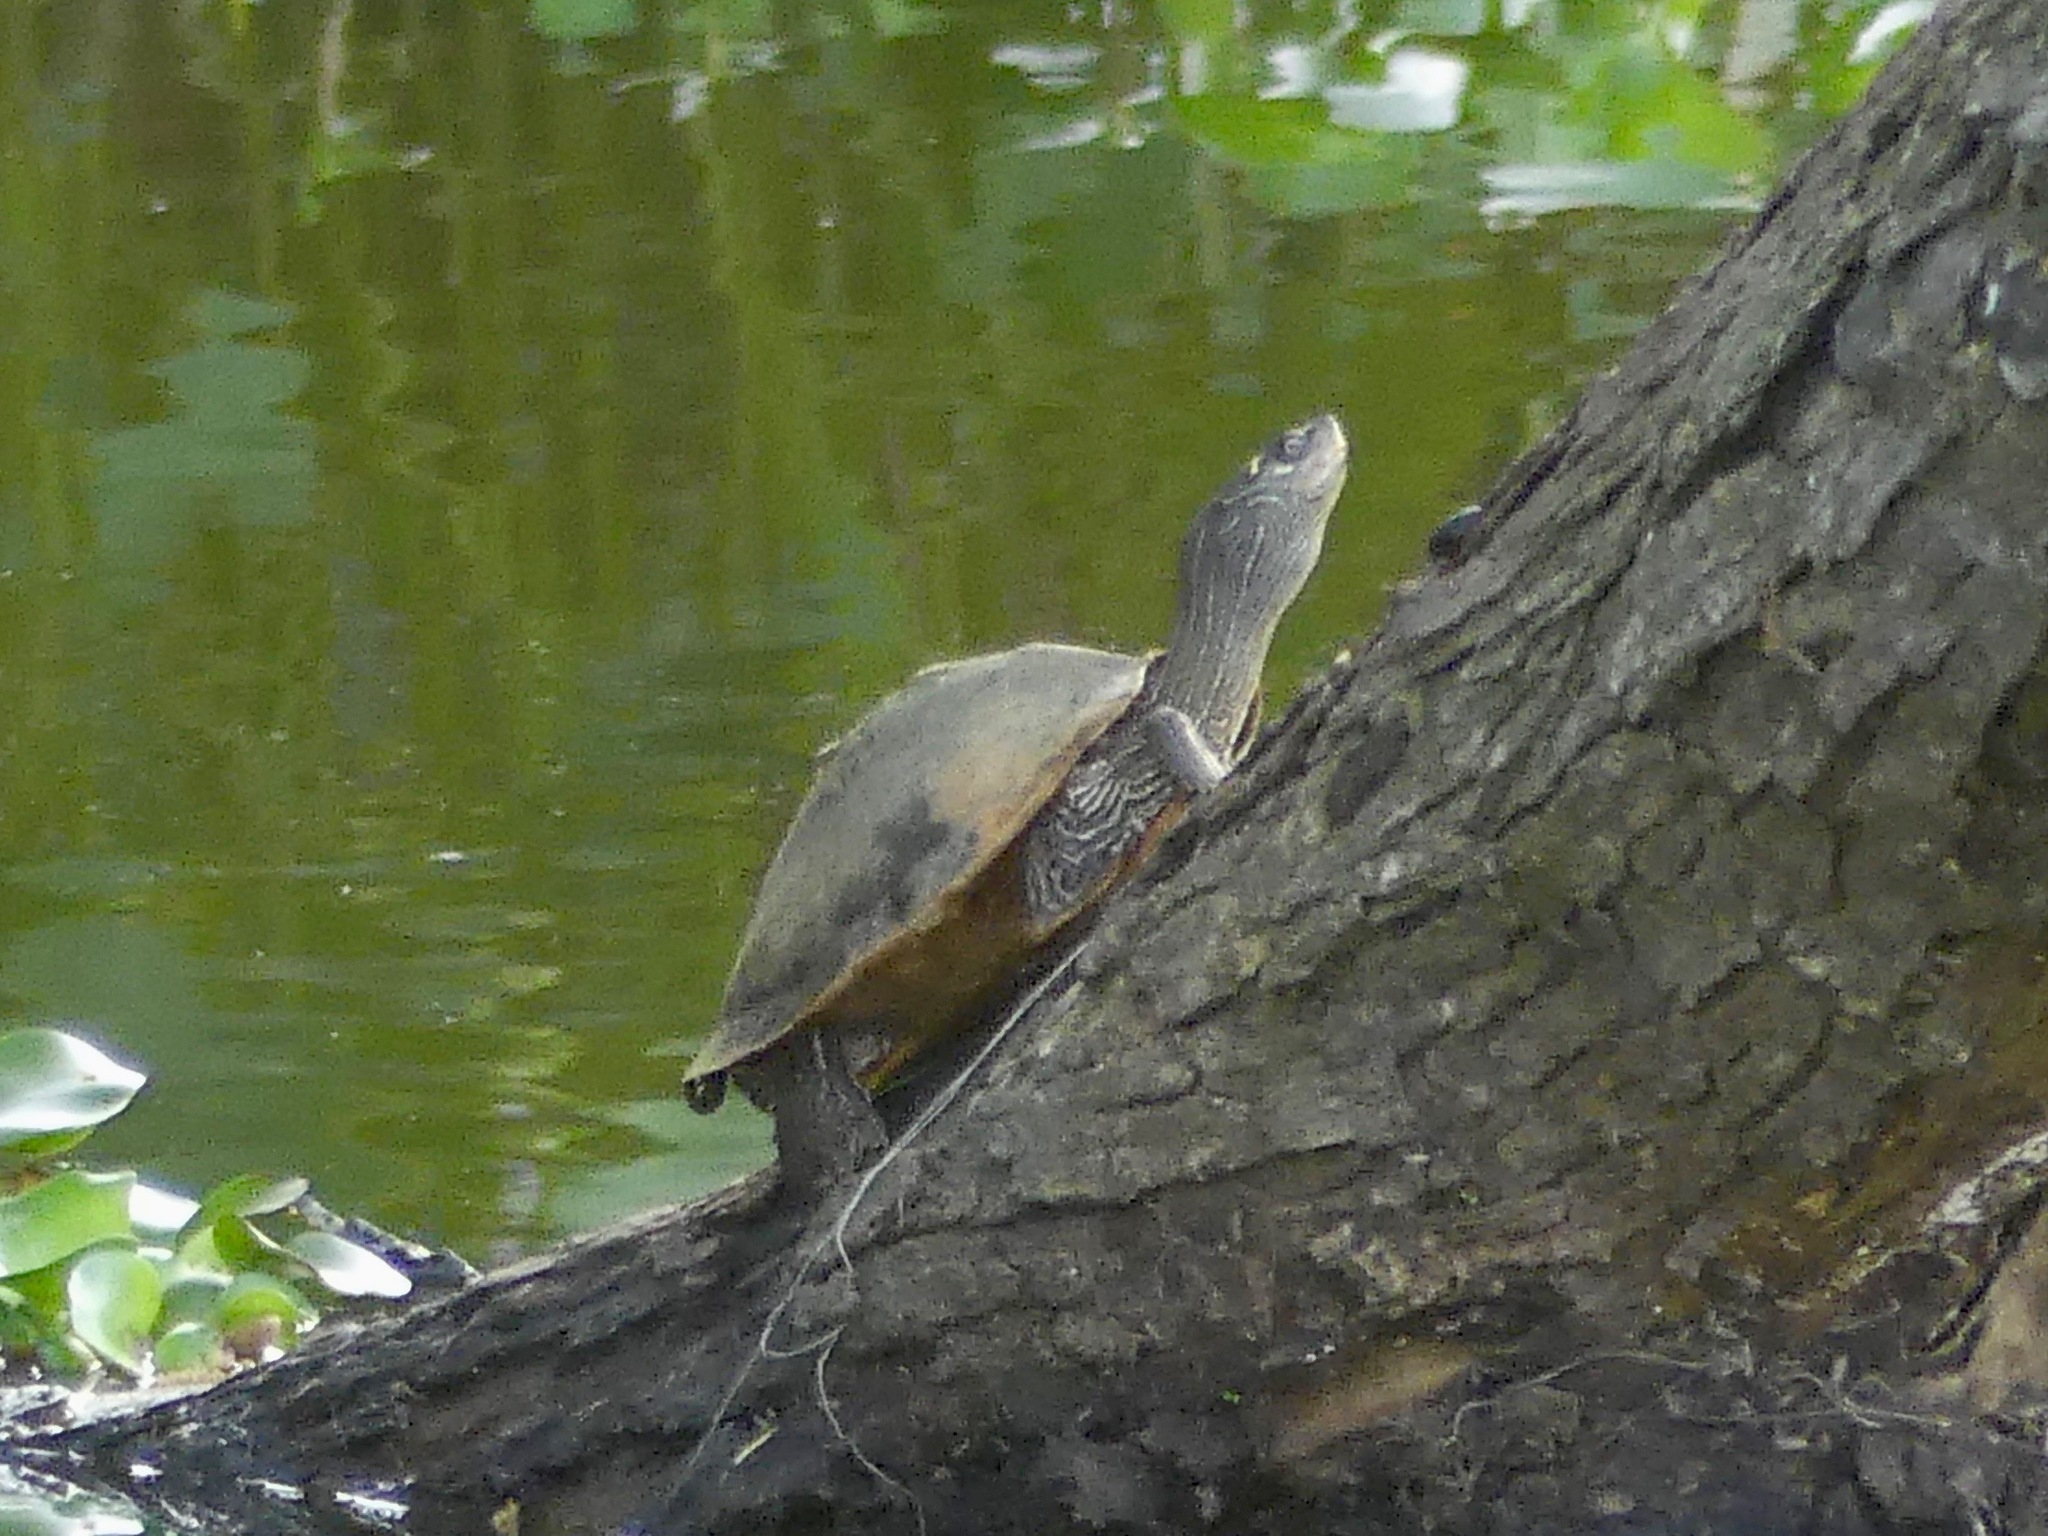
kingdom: Animalia
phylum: Chordata
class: Testudines
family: Emydidae
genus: Graptemys
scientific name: Graptemys pseudogeographica
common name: False map turtle
